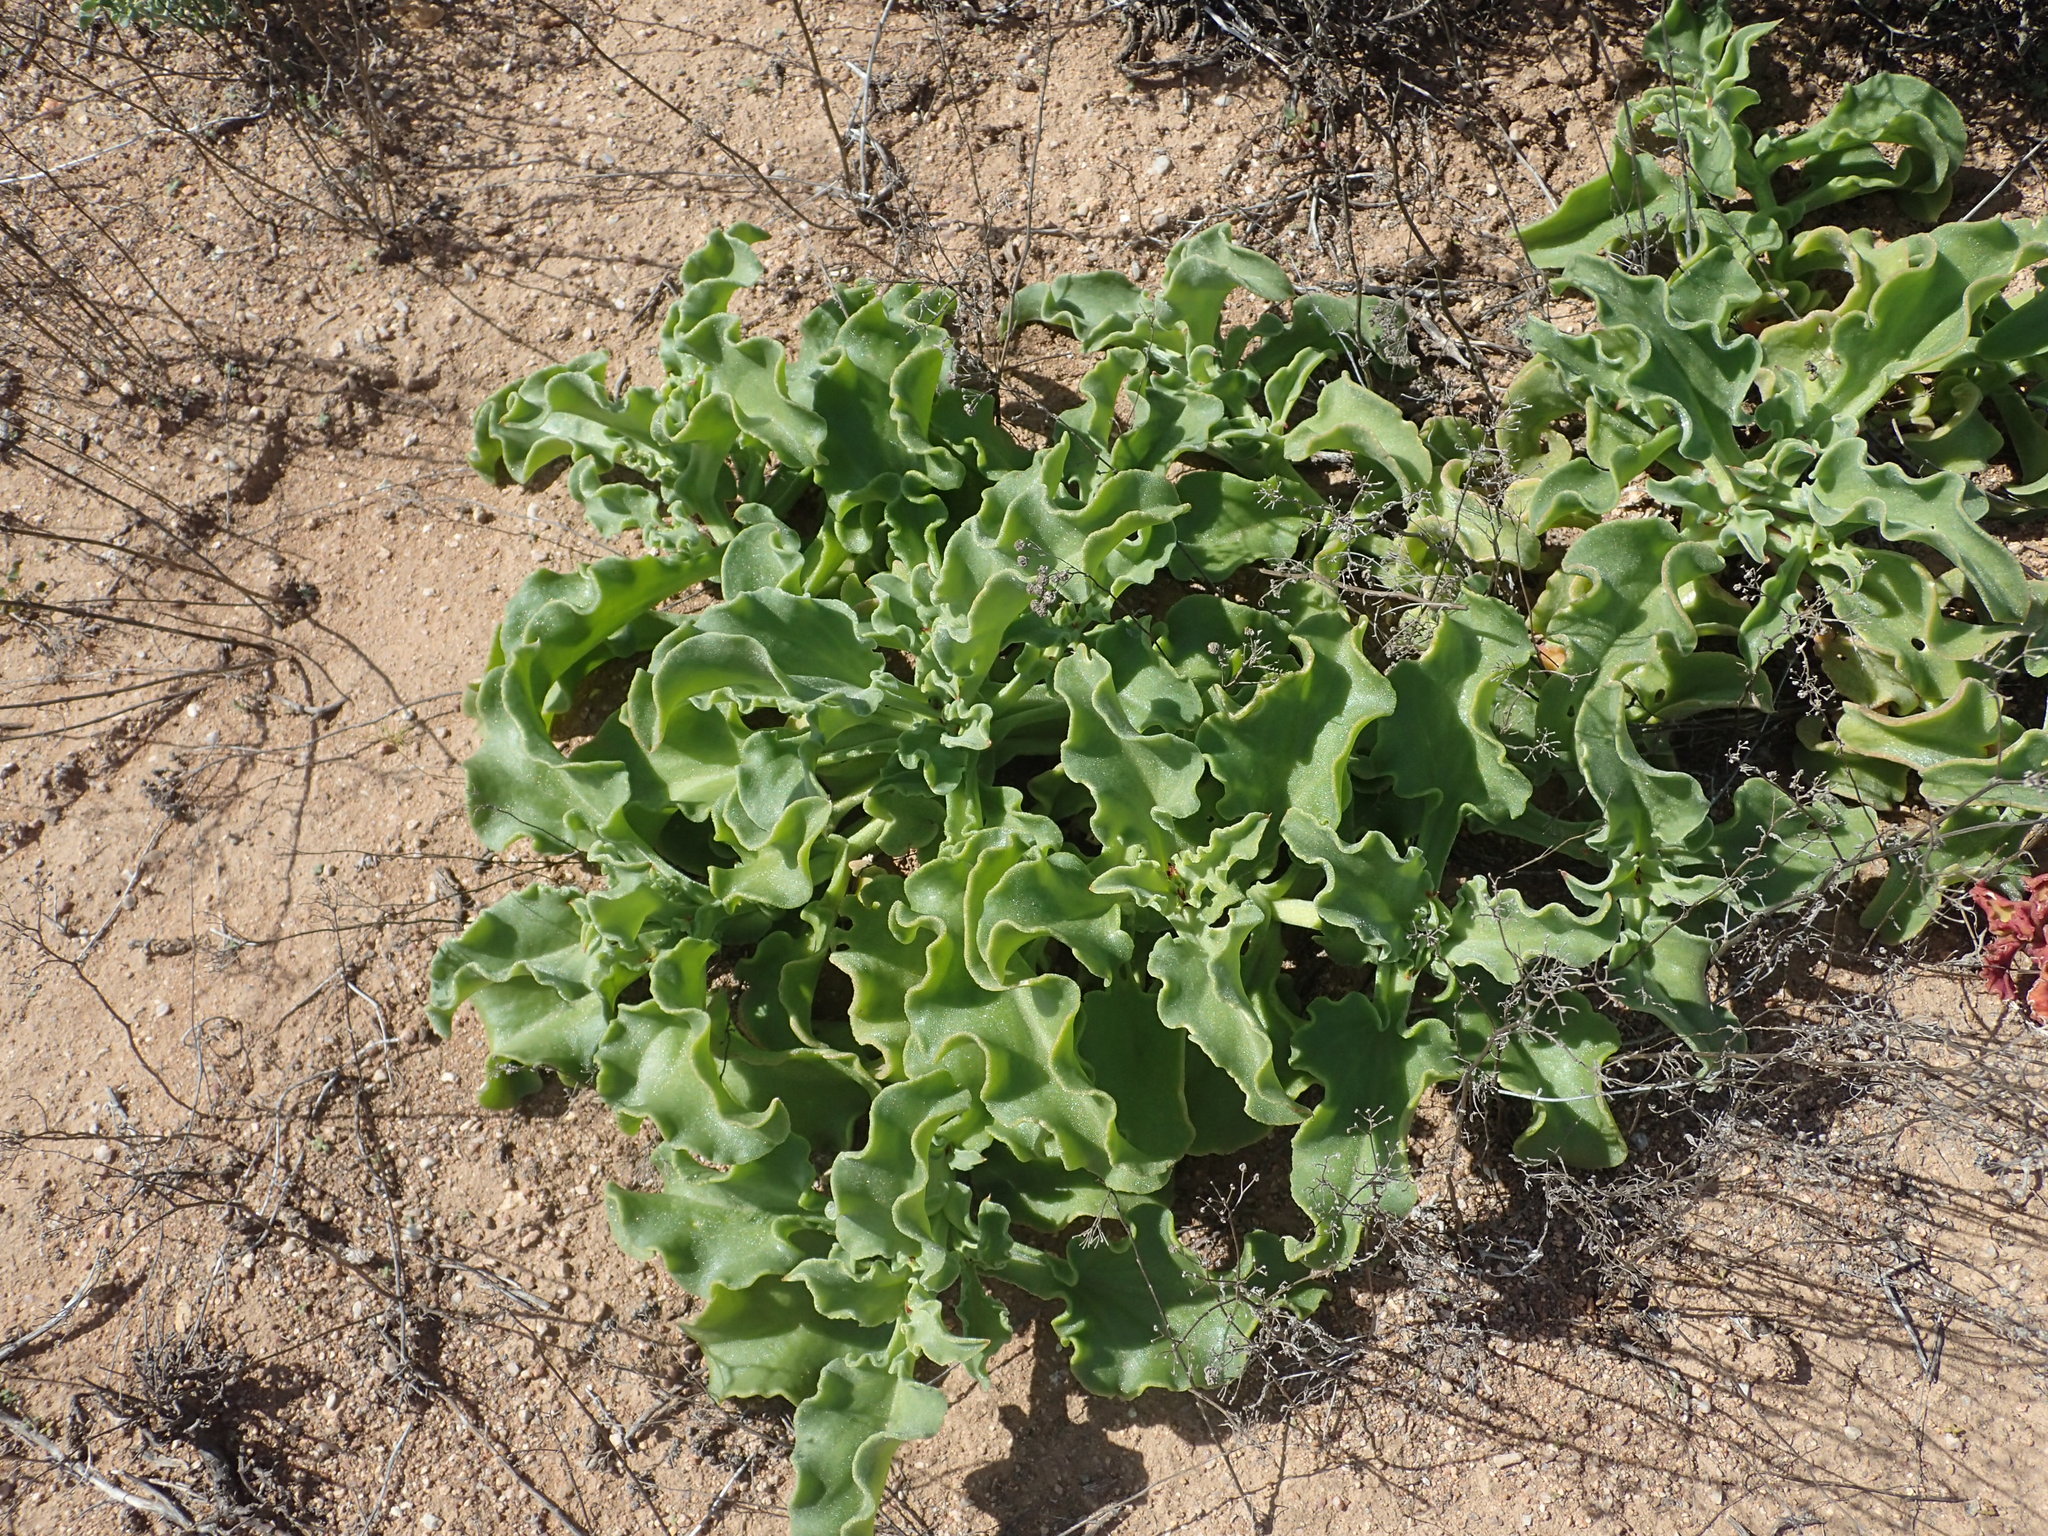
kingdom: Plantae
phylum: Tracheophyta
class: Magnoliopsida
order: Caryophyllales
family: Aizoaceae
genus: Mesembryanthemum
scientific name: Mesembryanthemum guerichianum
